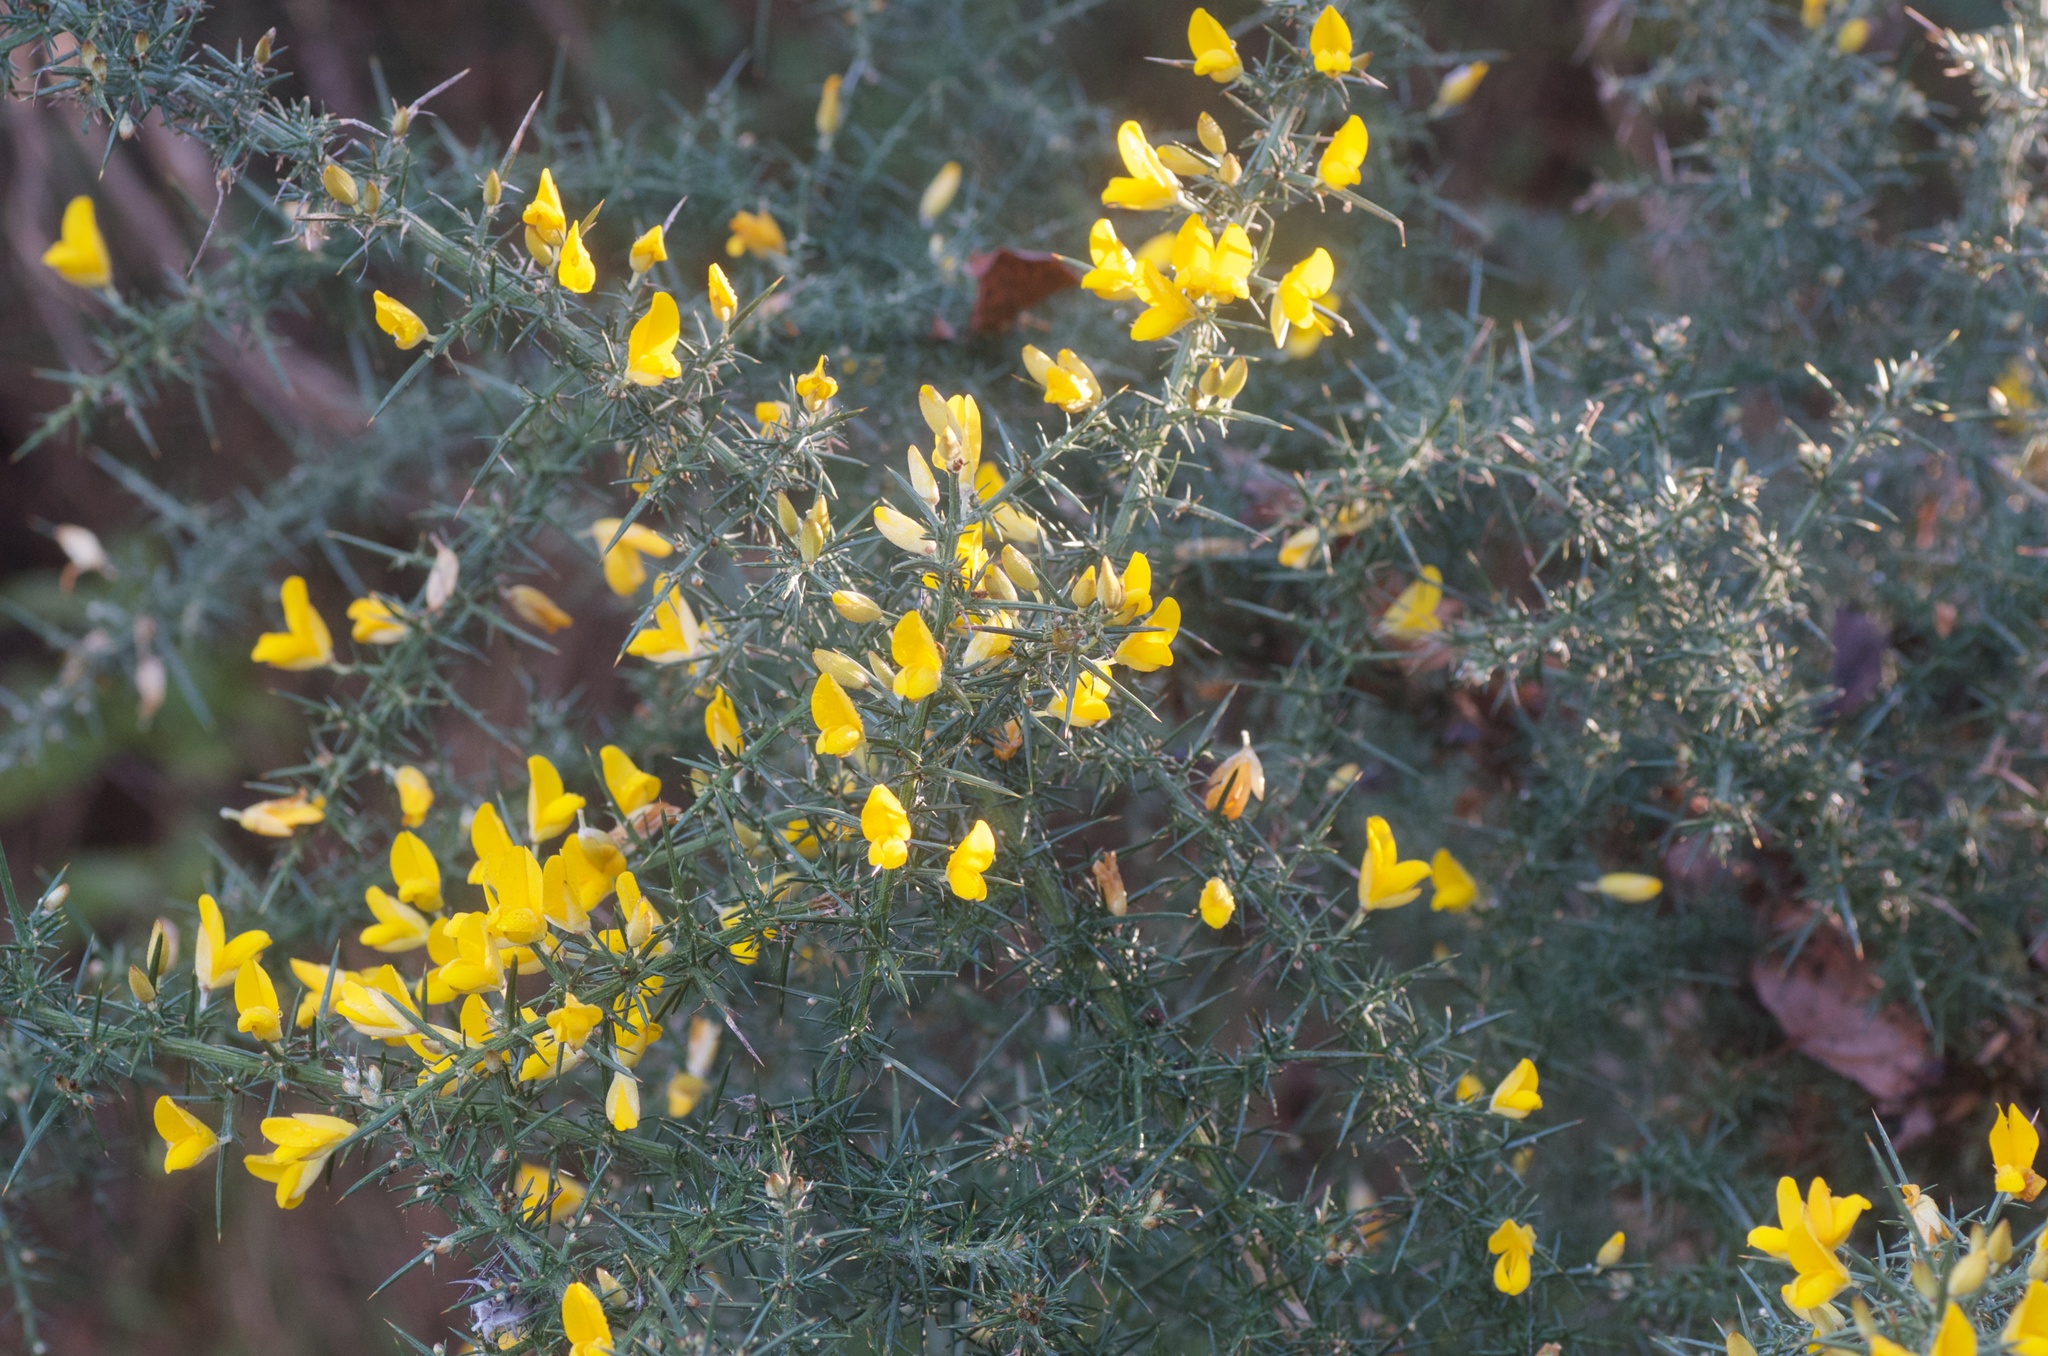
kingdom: Plantae
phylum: Tracheophyta
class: Magnoliopsida
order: Fabales
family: Fabaceae
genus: Ulex
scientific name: Ulex europaeus
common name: Common gorse
